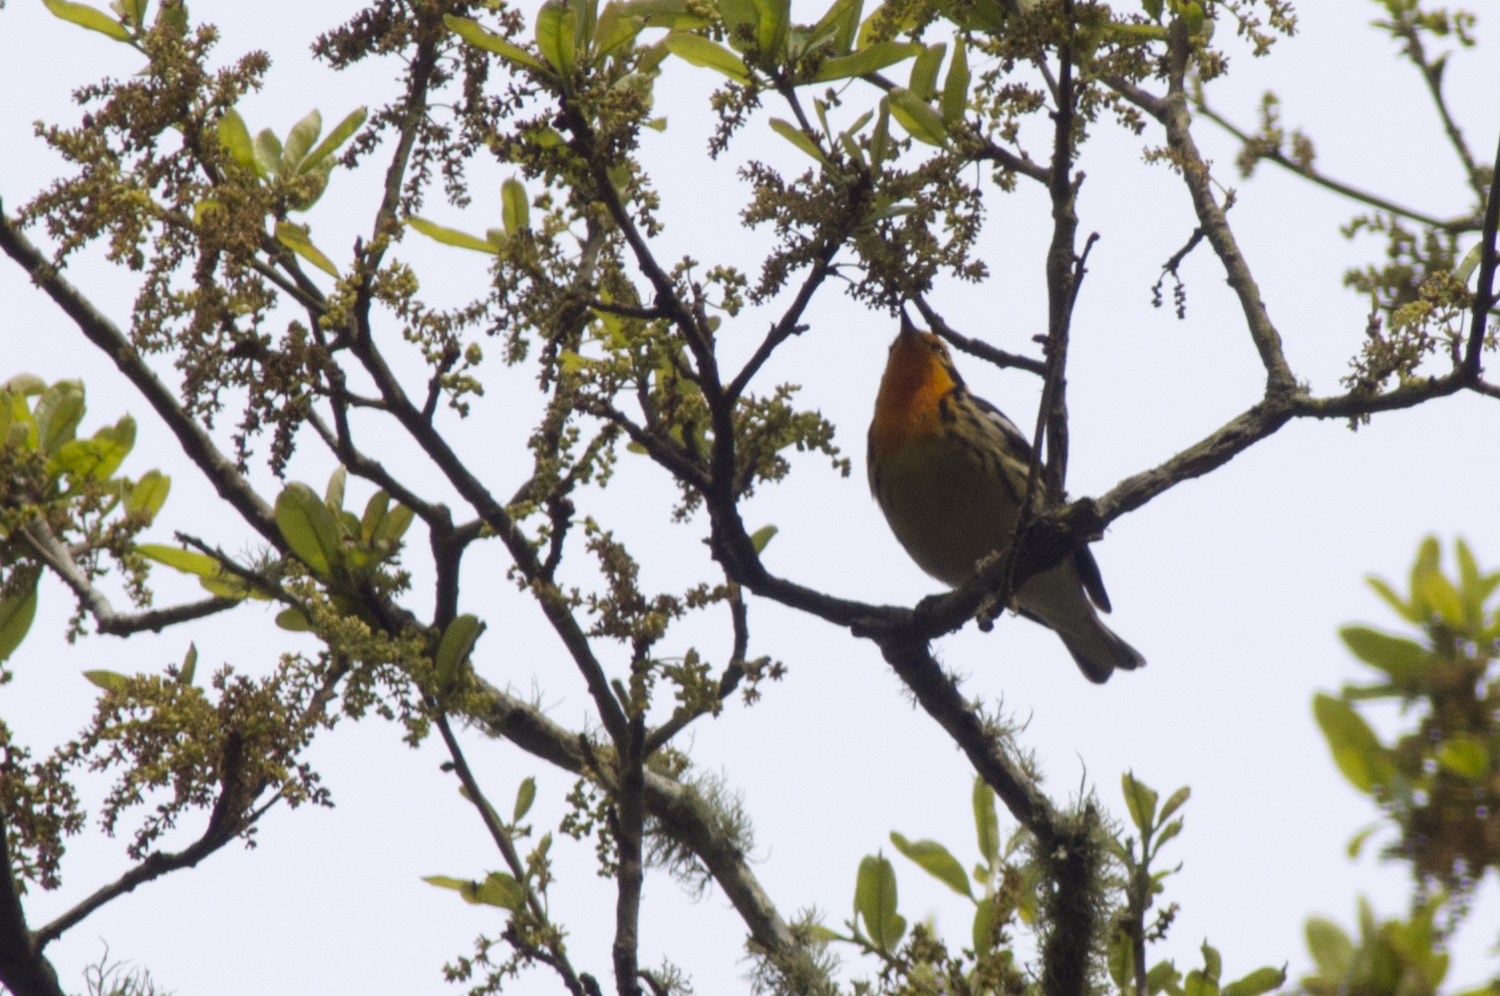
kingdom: Animalia
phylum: Chordata
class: Aves
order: Passeriformes
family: Parulidae
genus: Setophaga
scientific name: Setophaga fusca
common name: Blackburnian warbler
